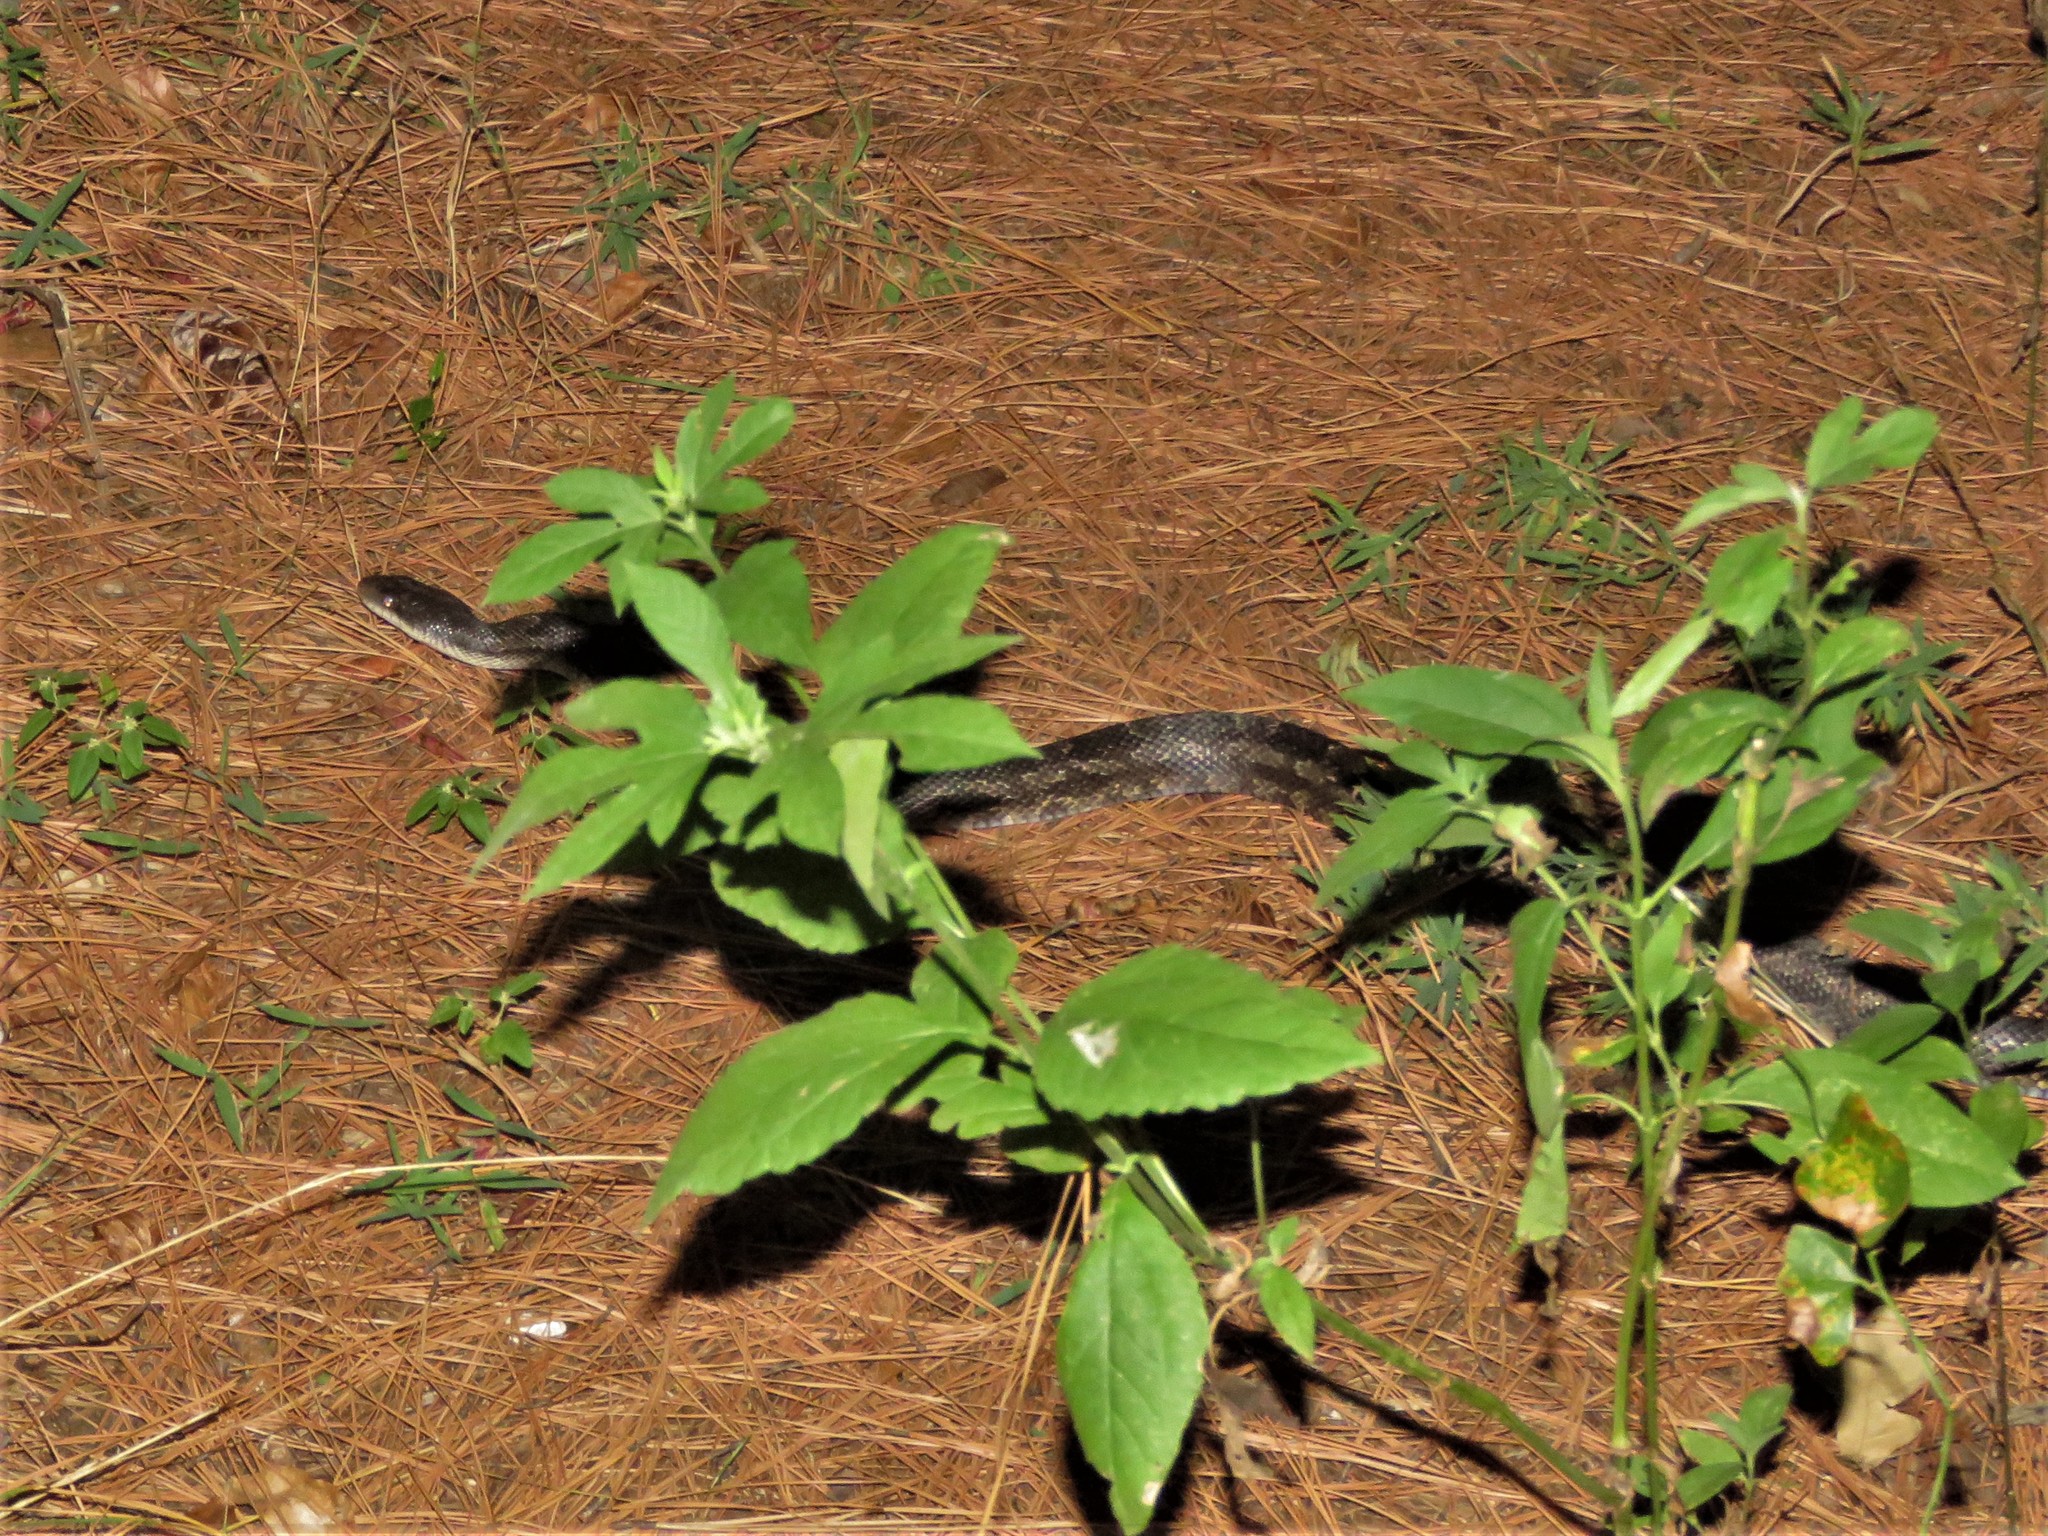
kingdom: Animalia
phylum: Chordata
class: Squamata
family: Colubridae
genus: Pantherophis
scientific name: Pantherophis obsoletus
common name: Black rat snake
